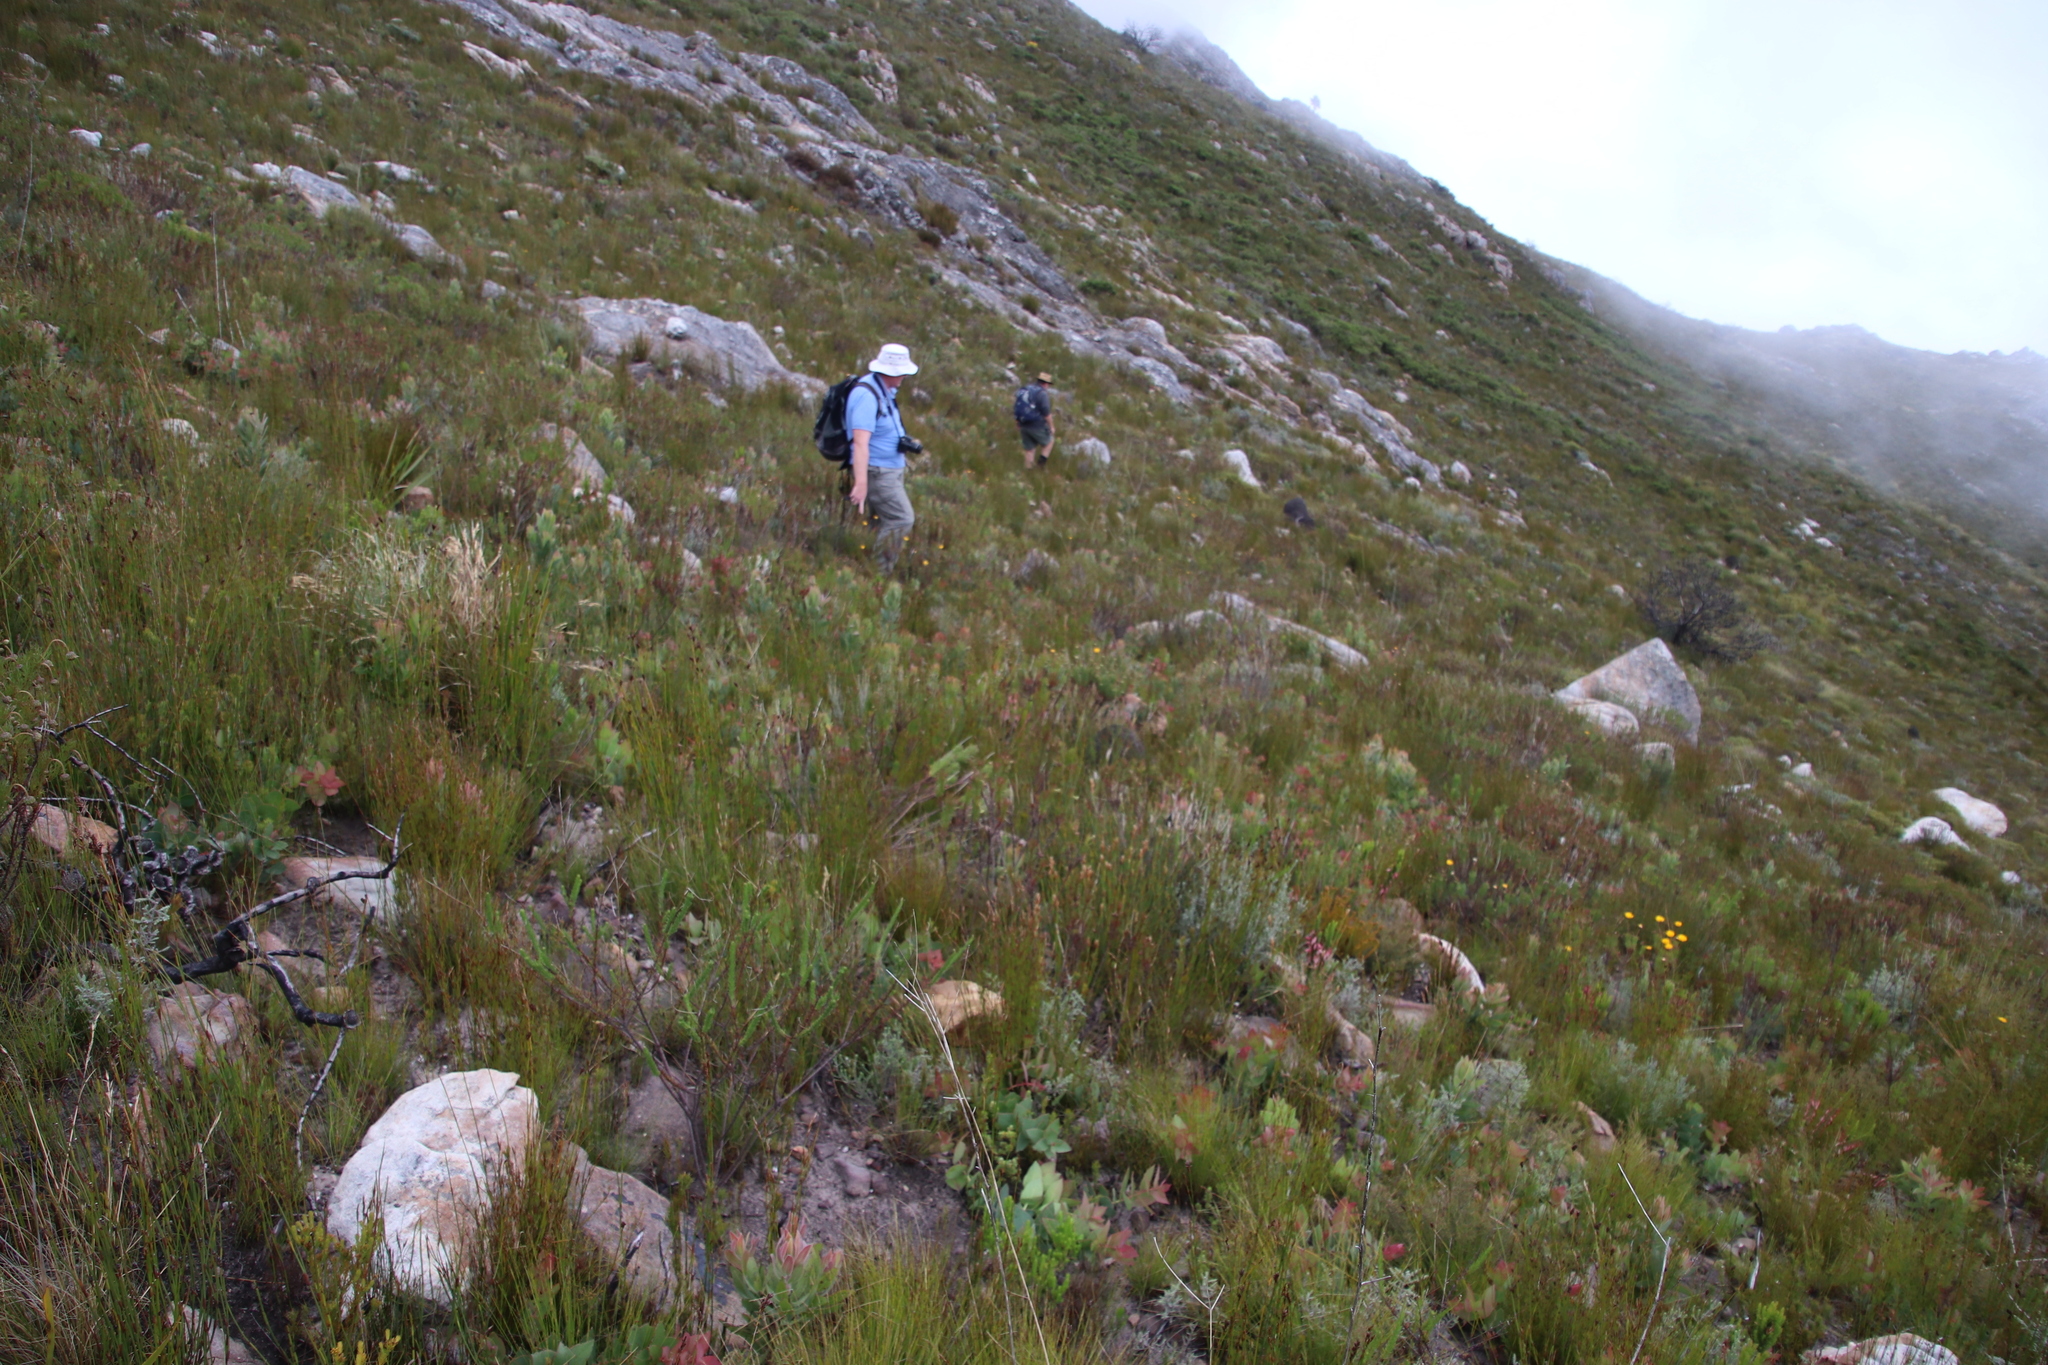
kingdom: Plantae
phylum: Tracheophyta
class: Magnoliopsida
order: Proteales
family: Proteaceae
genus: Protea
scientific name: Protea amplexicaulis
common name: Clasping-leaf sugarbush
